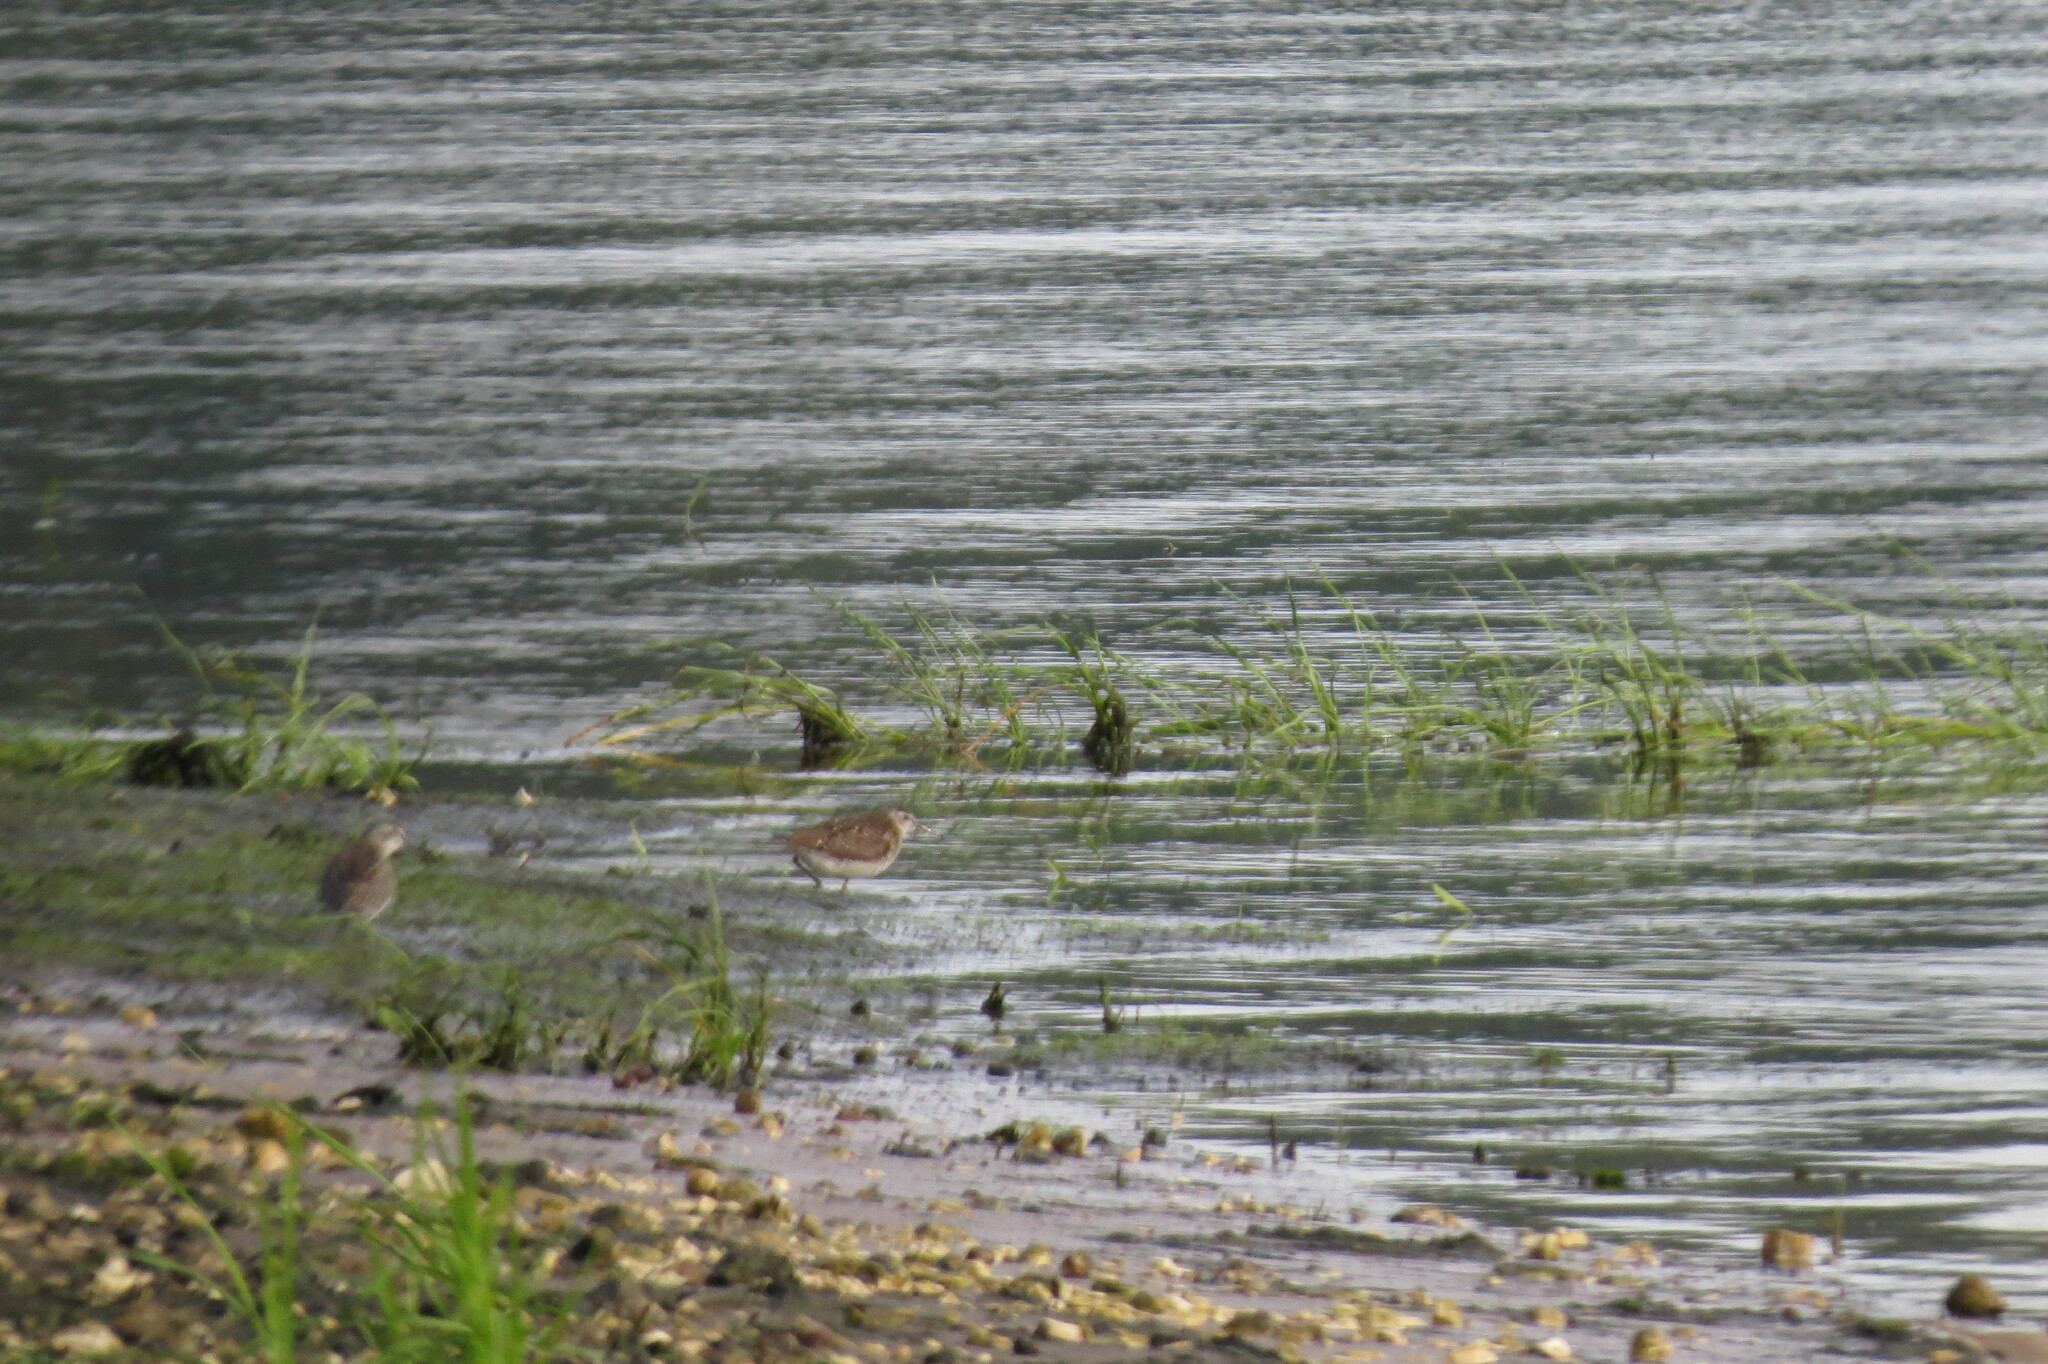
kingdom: Animalia
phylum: Chordata
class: Aves
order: Charadriiformes
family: Scolopacidae
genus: Tringa
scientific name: Tringa glareola
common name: Wood sandpiper
